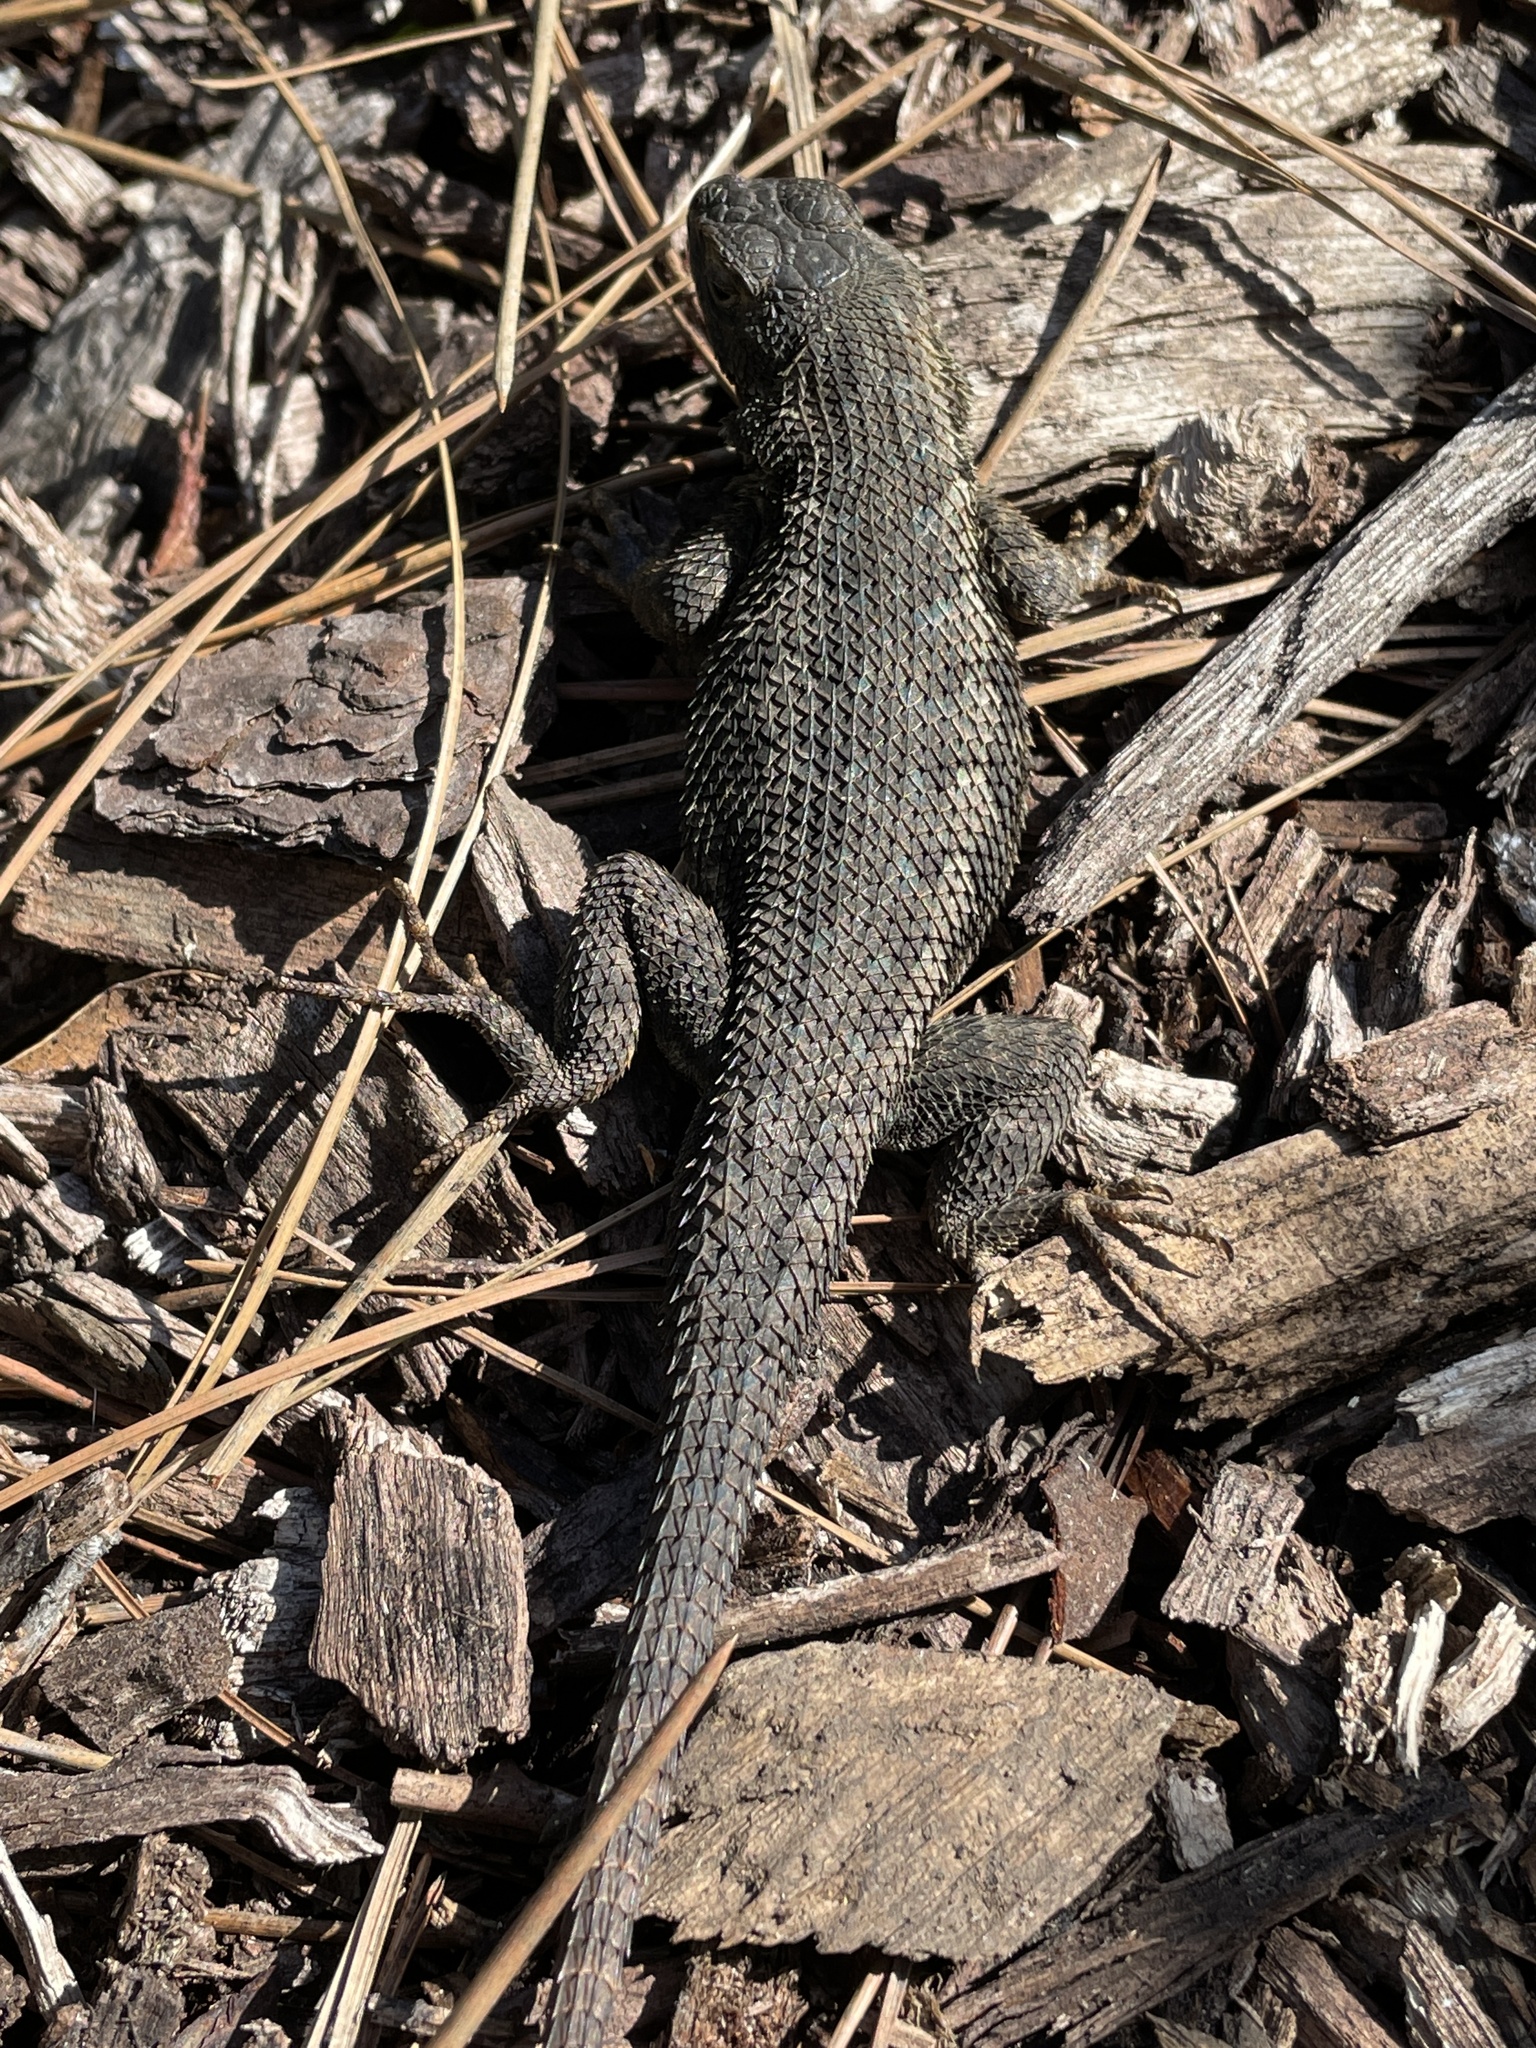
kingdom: Animalia
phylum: Chordata
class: Squamata
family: Phrynosomatidae
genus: Sceloporus
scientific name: Sceloporus occidentalis
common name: Western fence lizard
